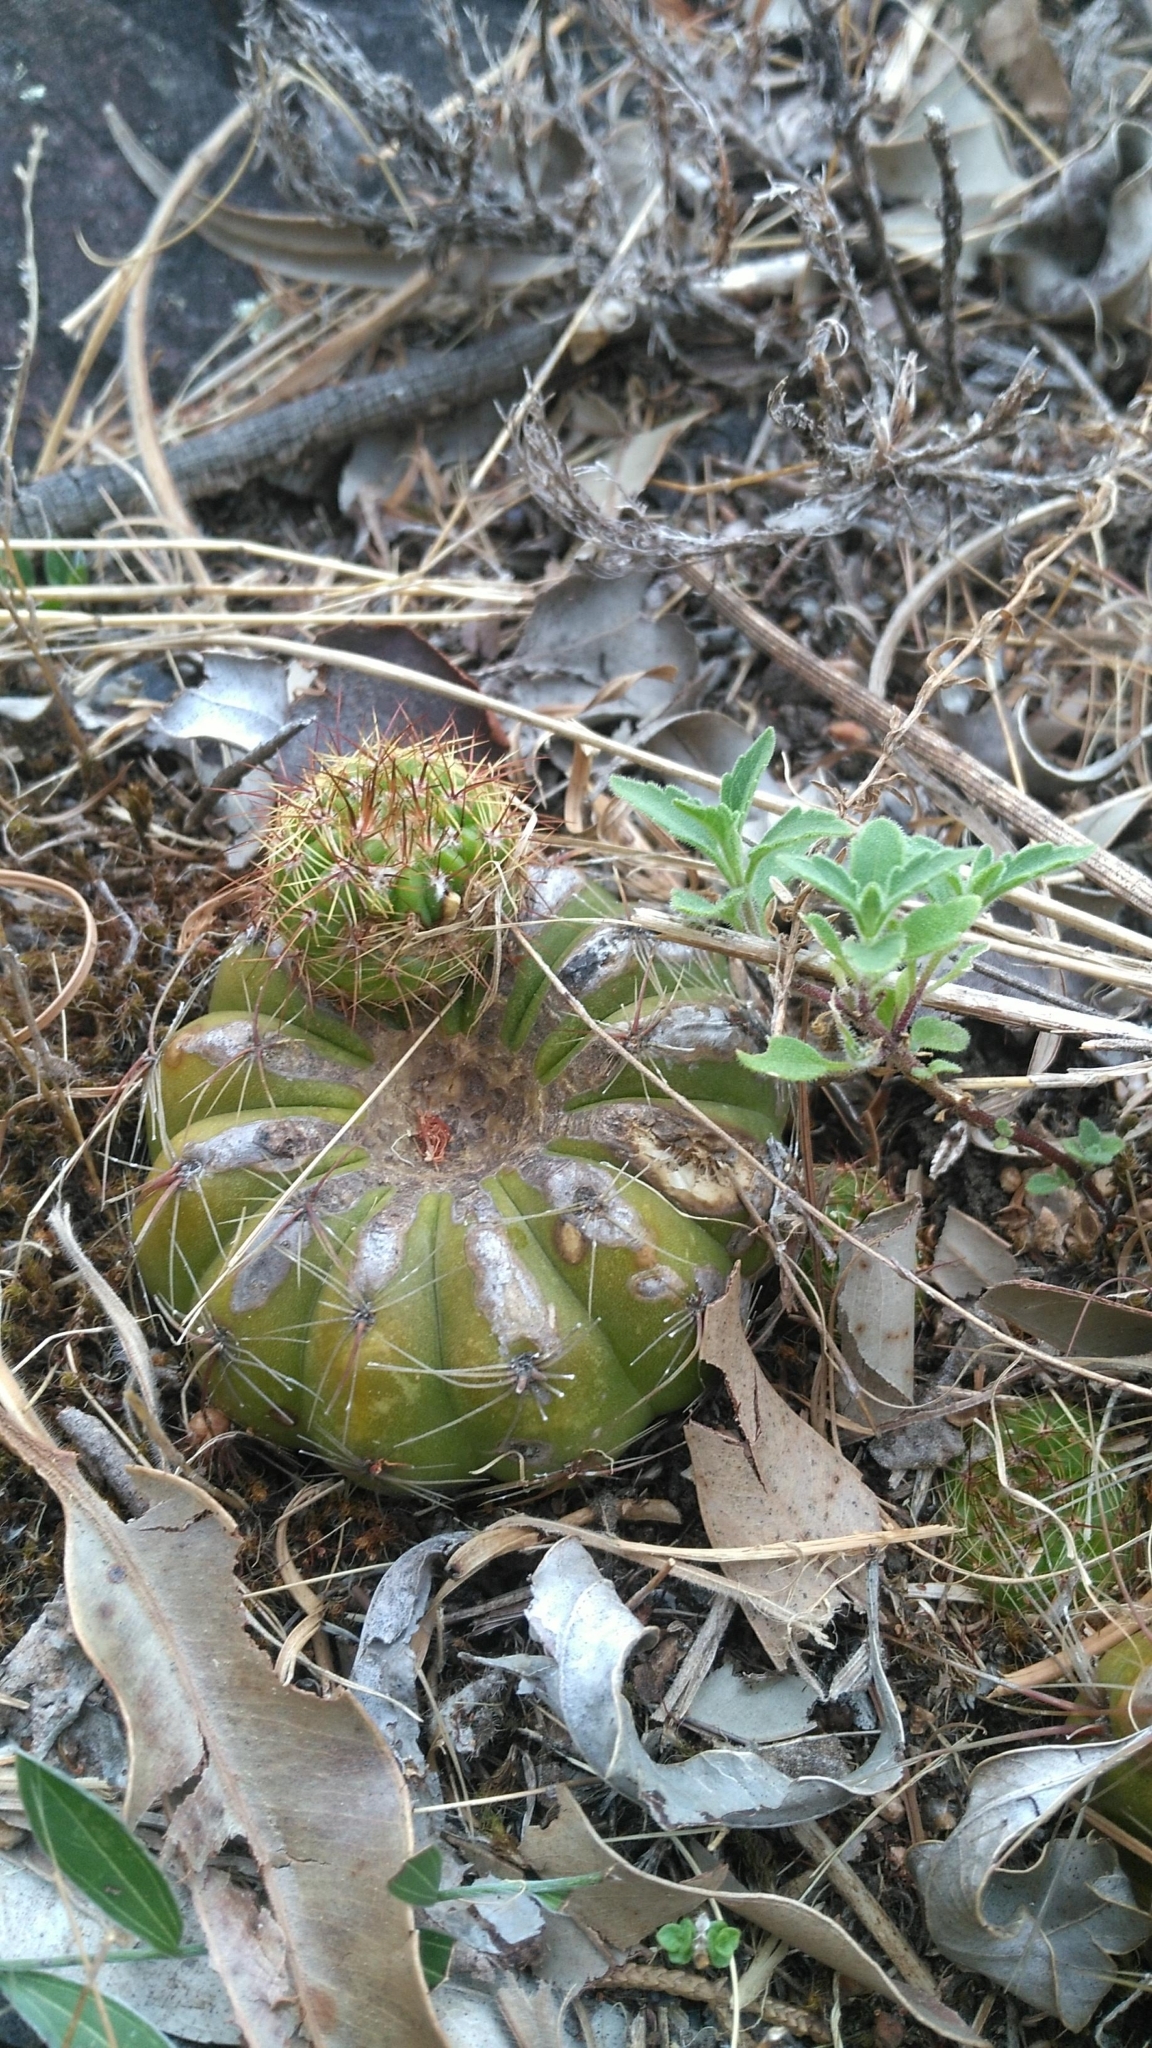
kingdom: Plantae
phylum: Tracheophyta
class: Magnoliopsida
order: Caryophyllales
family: Cactaceae
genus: Parodia
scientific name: Parodia ottonis
